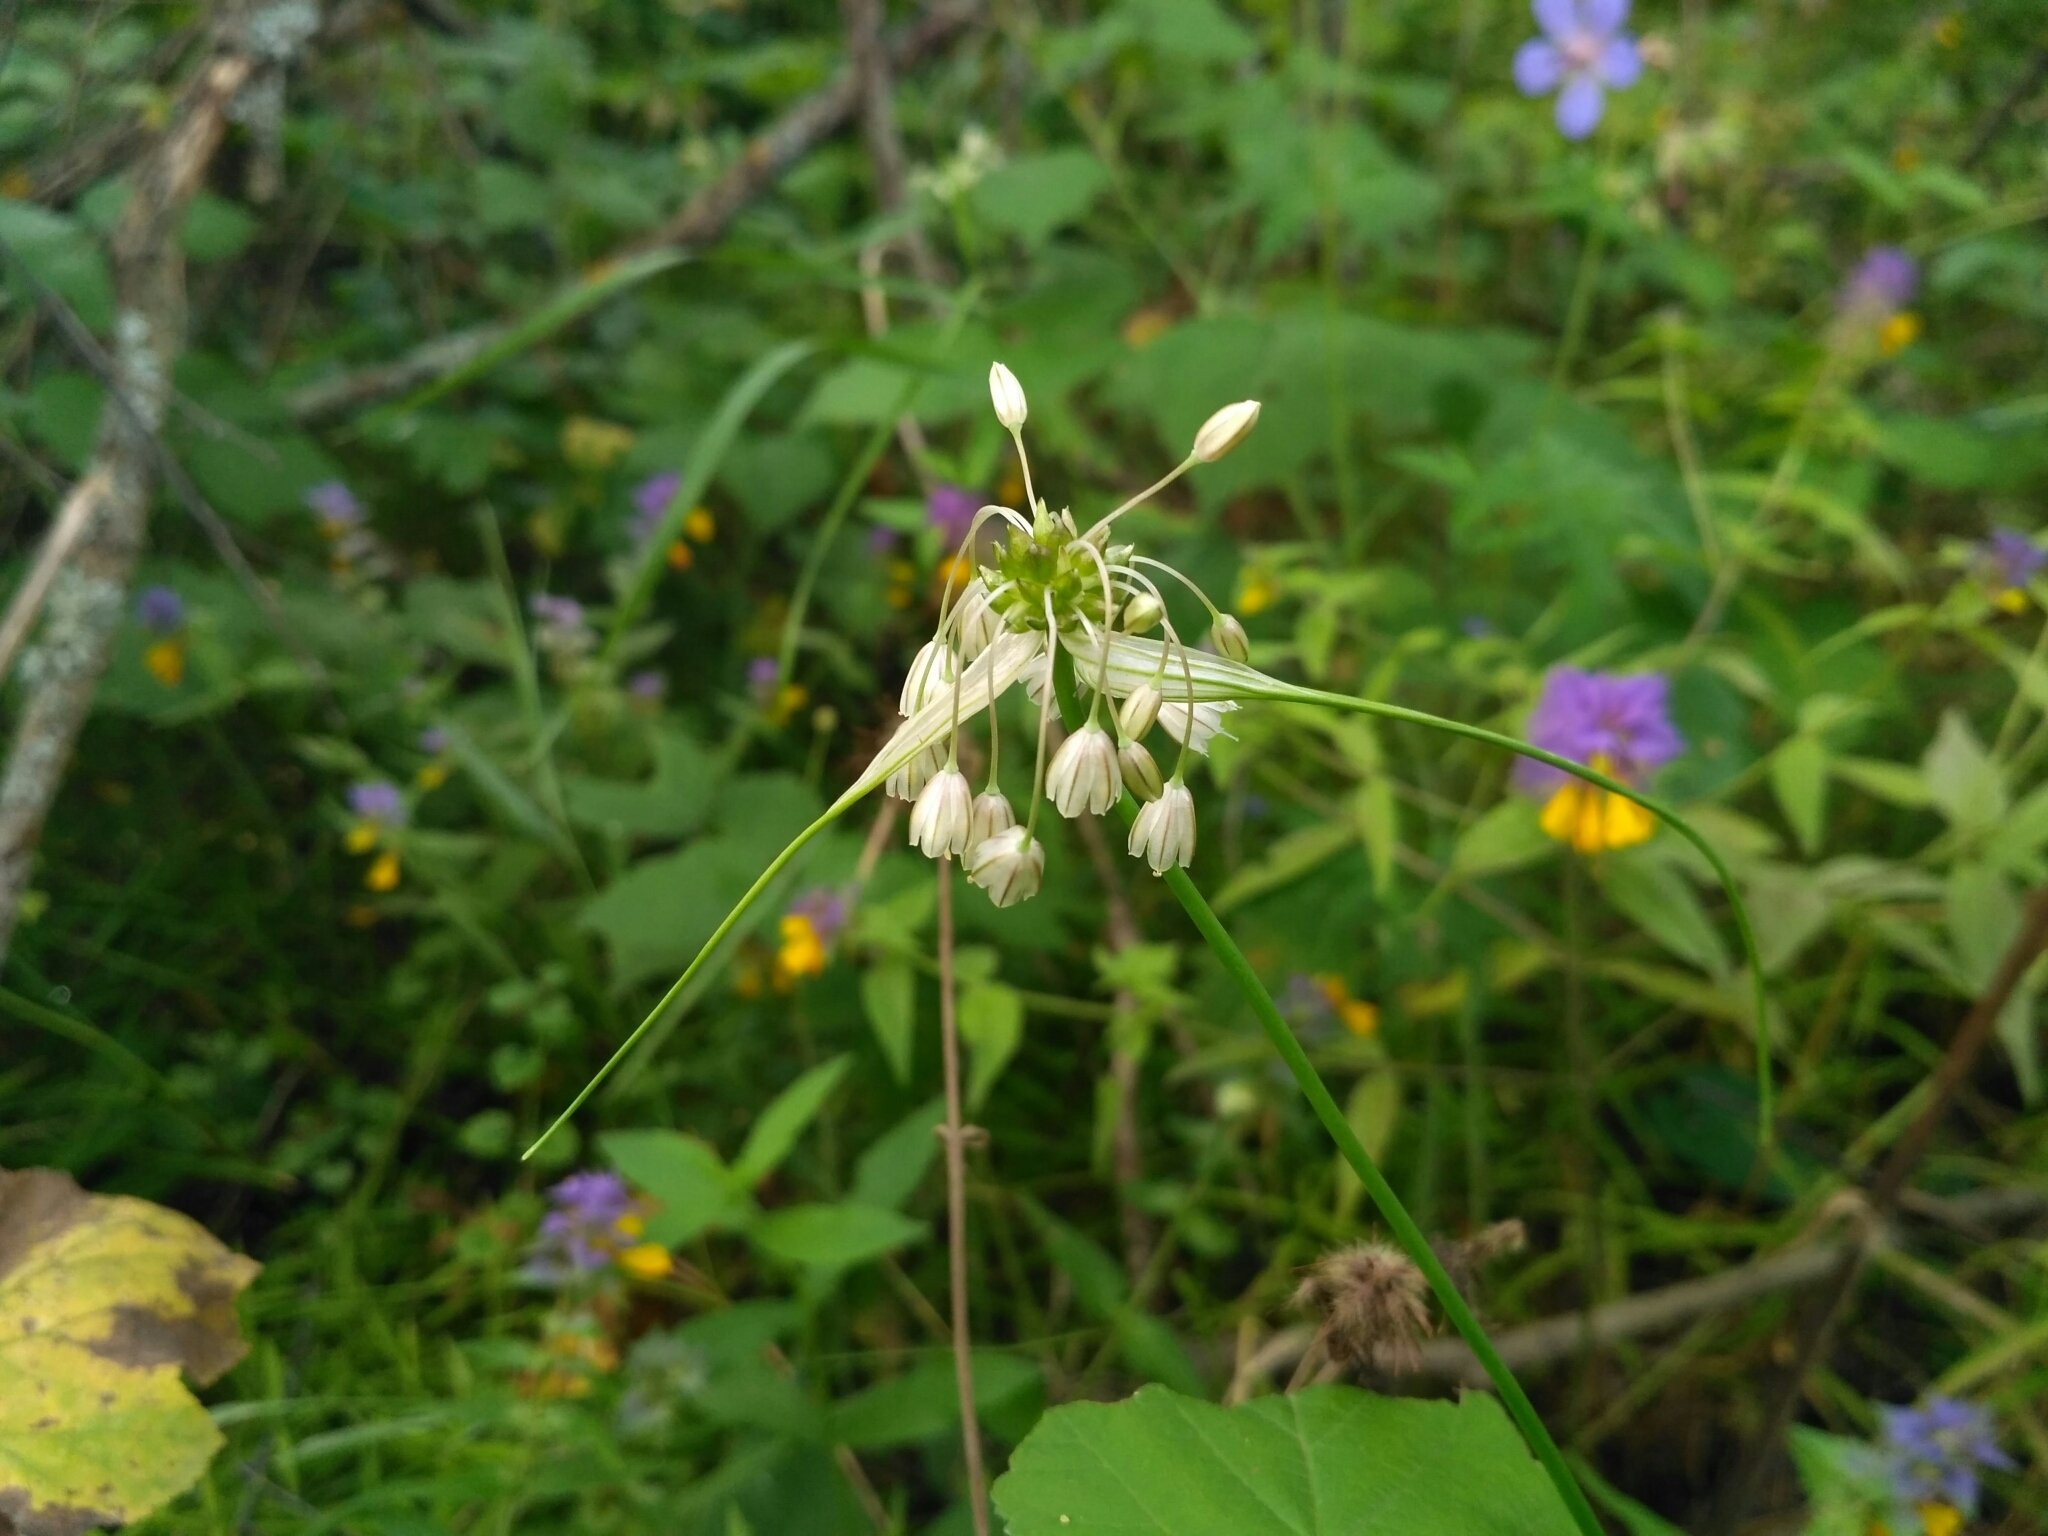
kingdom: Plantae
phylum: Tracheophyta
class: Liliopsida
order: Asparagales
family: Amaryllidaceae
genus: Allium
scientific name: Allium oleraceum
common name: Field garlic
